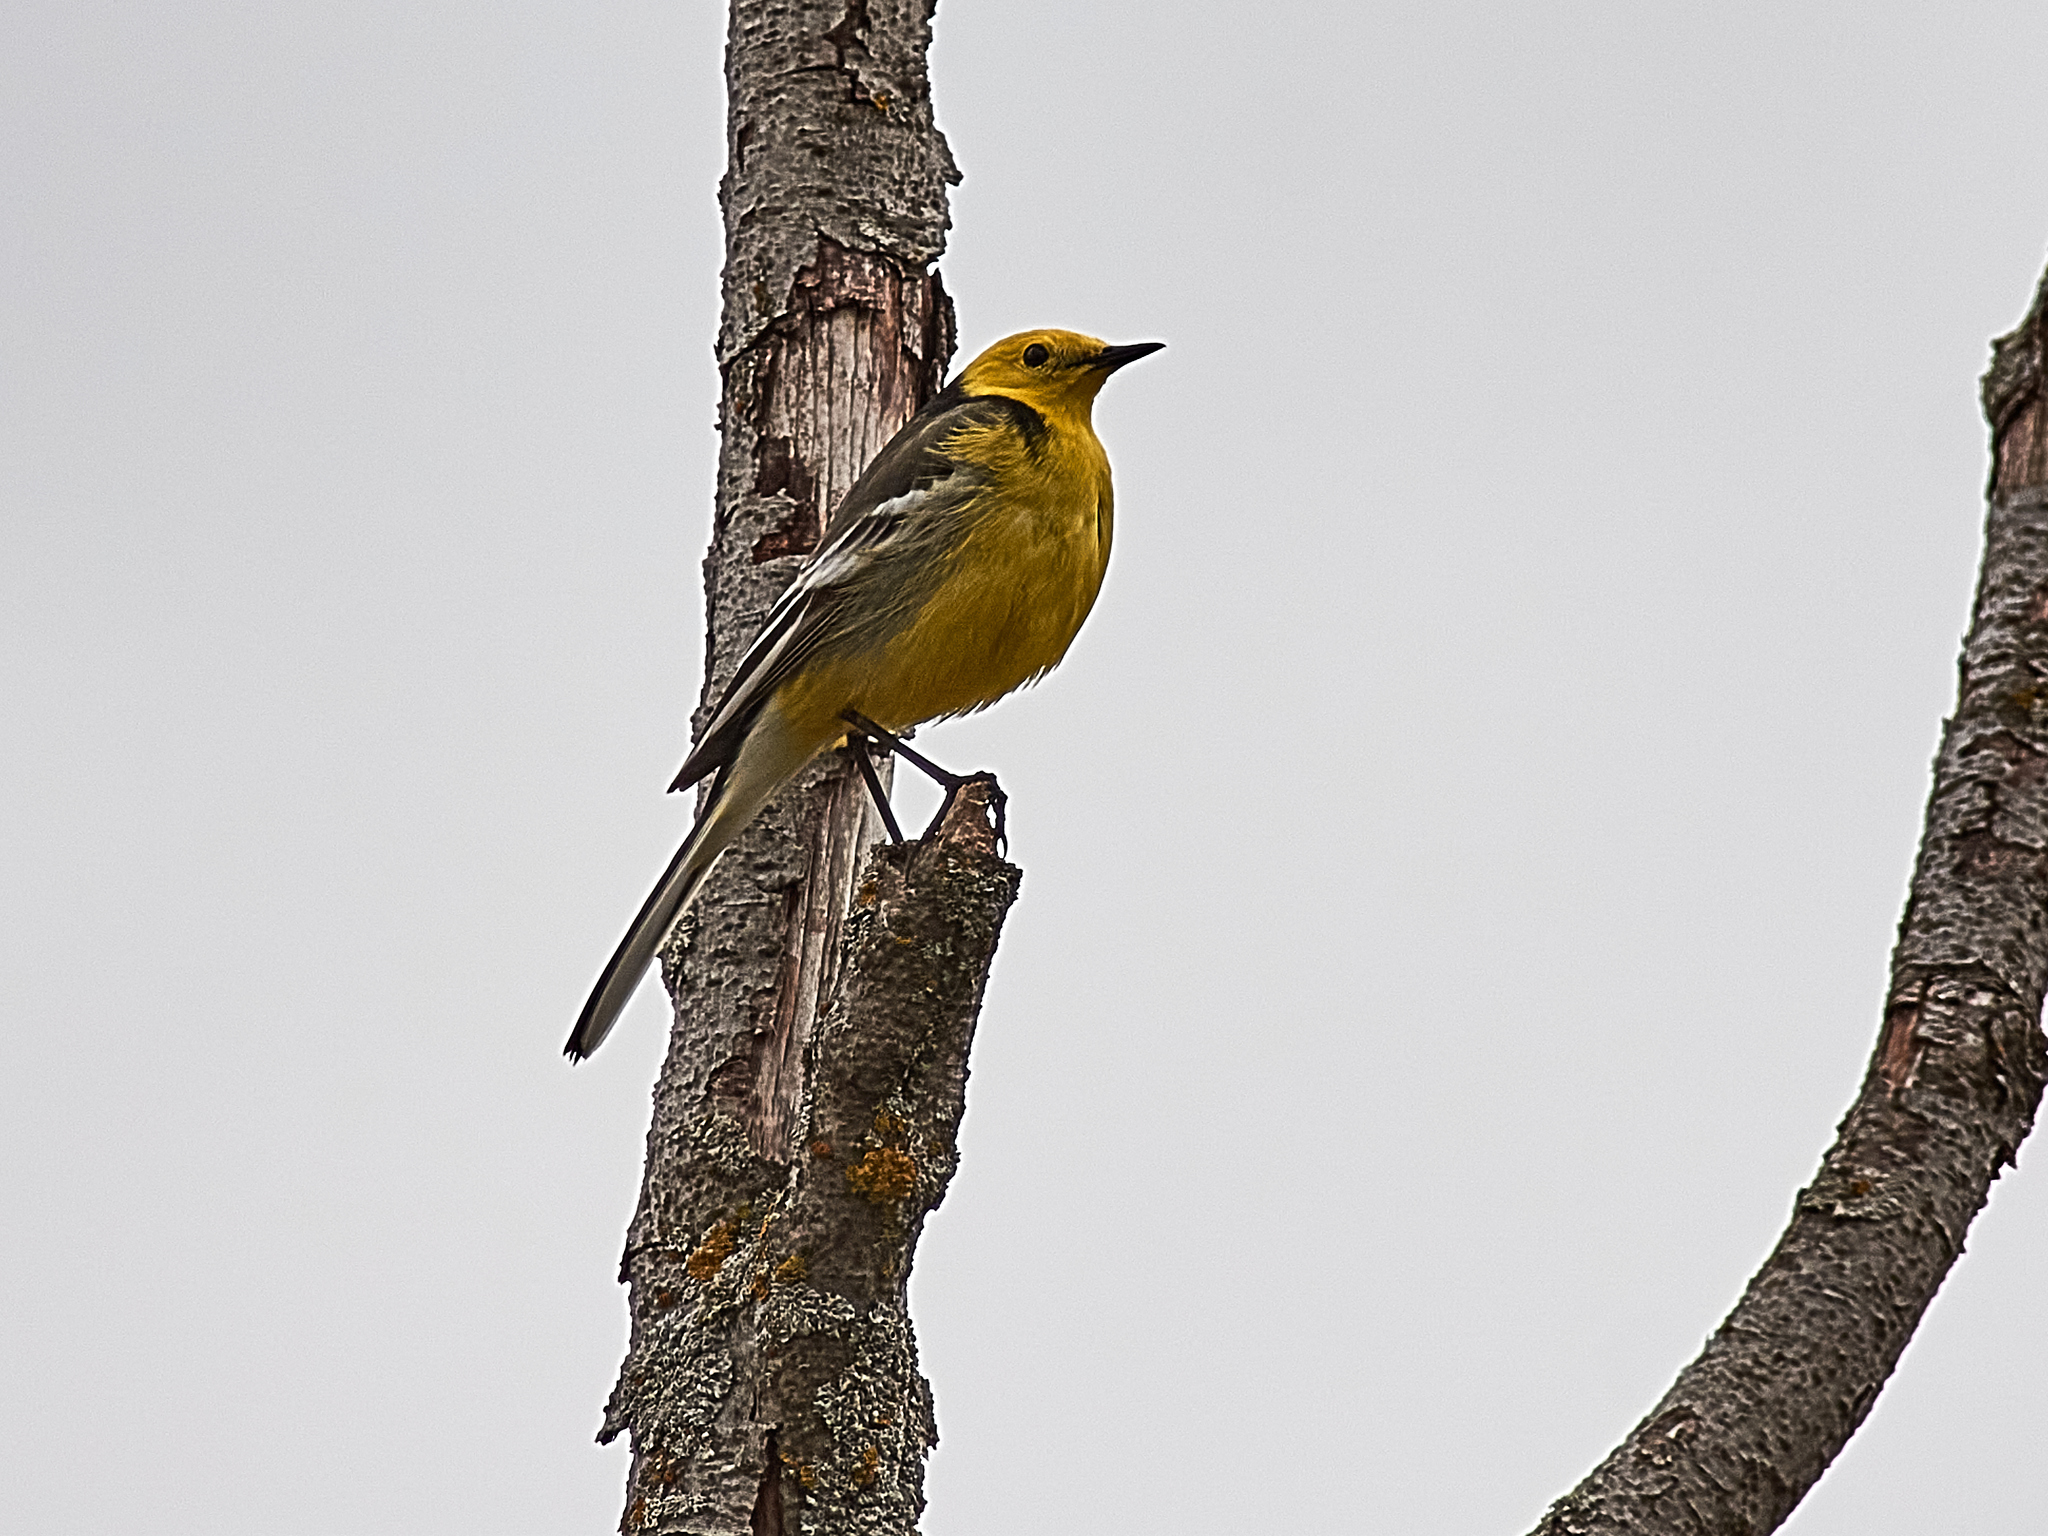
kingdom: Animalia
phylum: Chordata
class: Aves
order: Passeriformes
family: Motacillidae
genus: Motacilla
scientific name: Motacilla citreola
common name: Citrine wagtail
